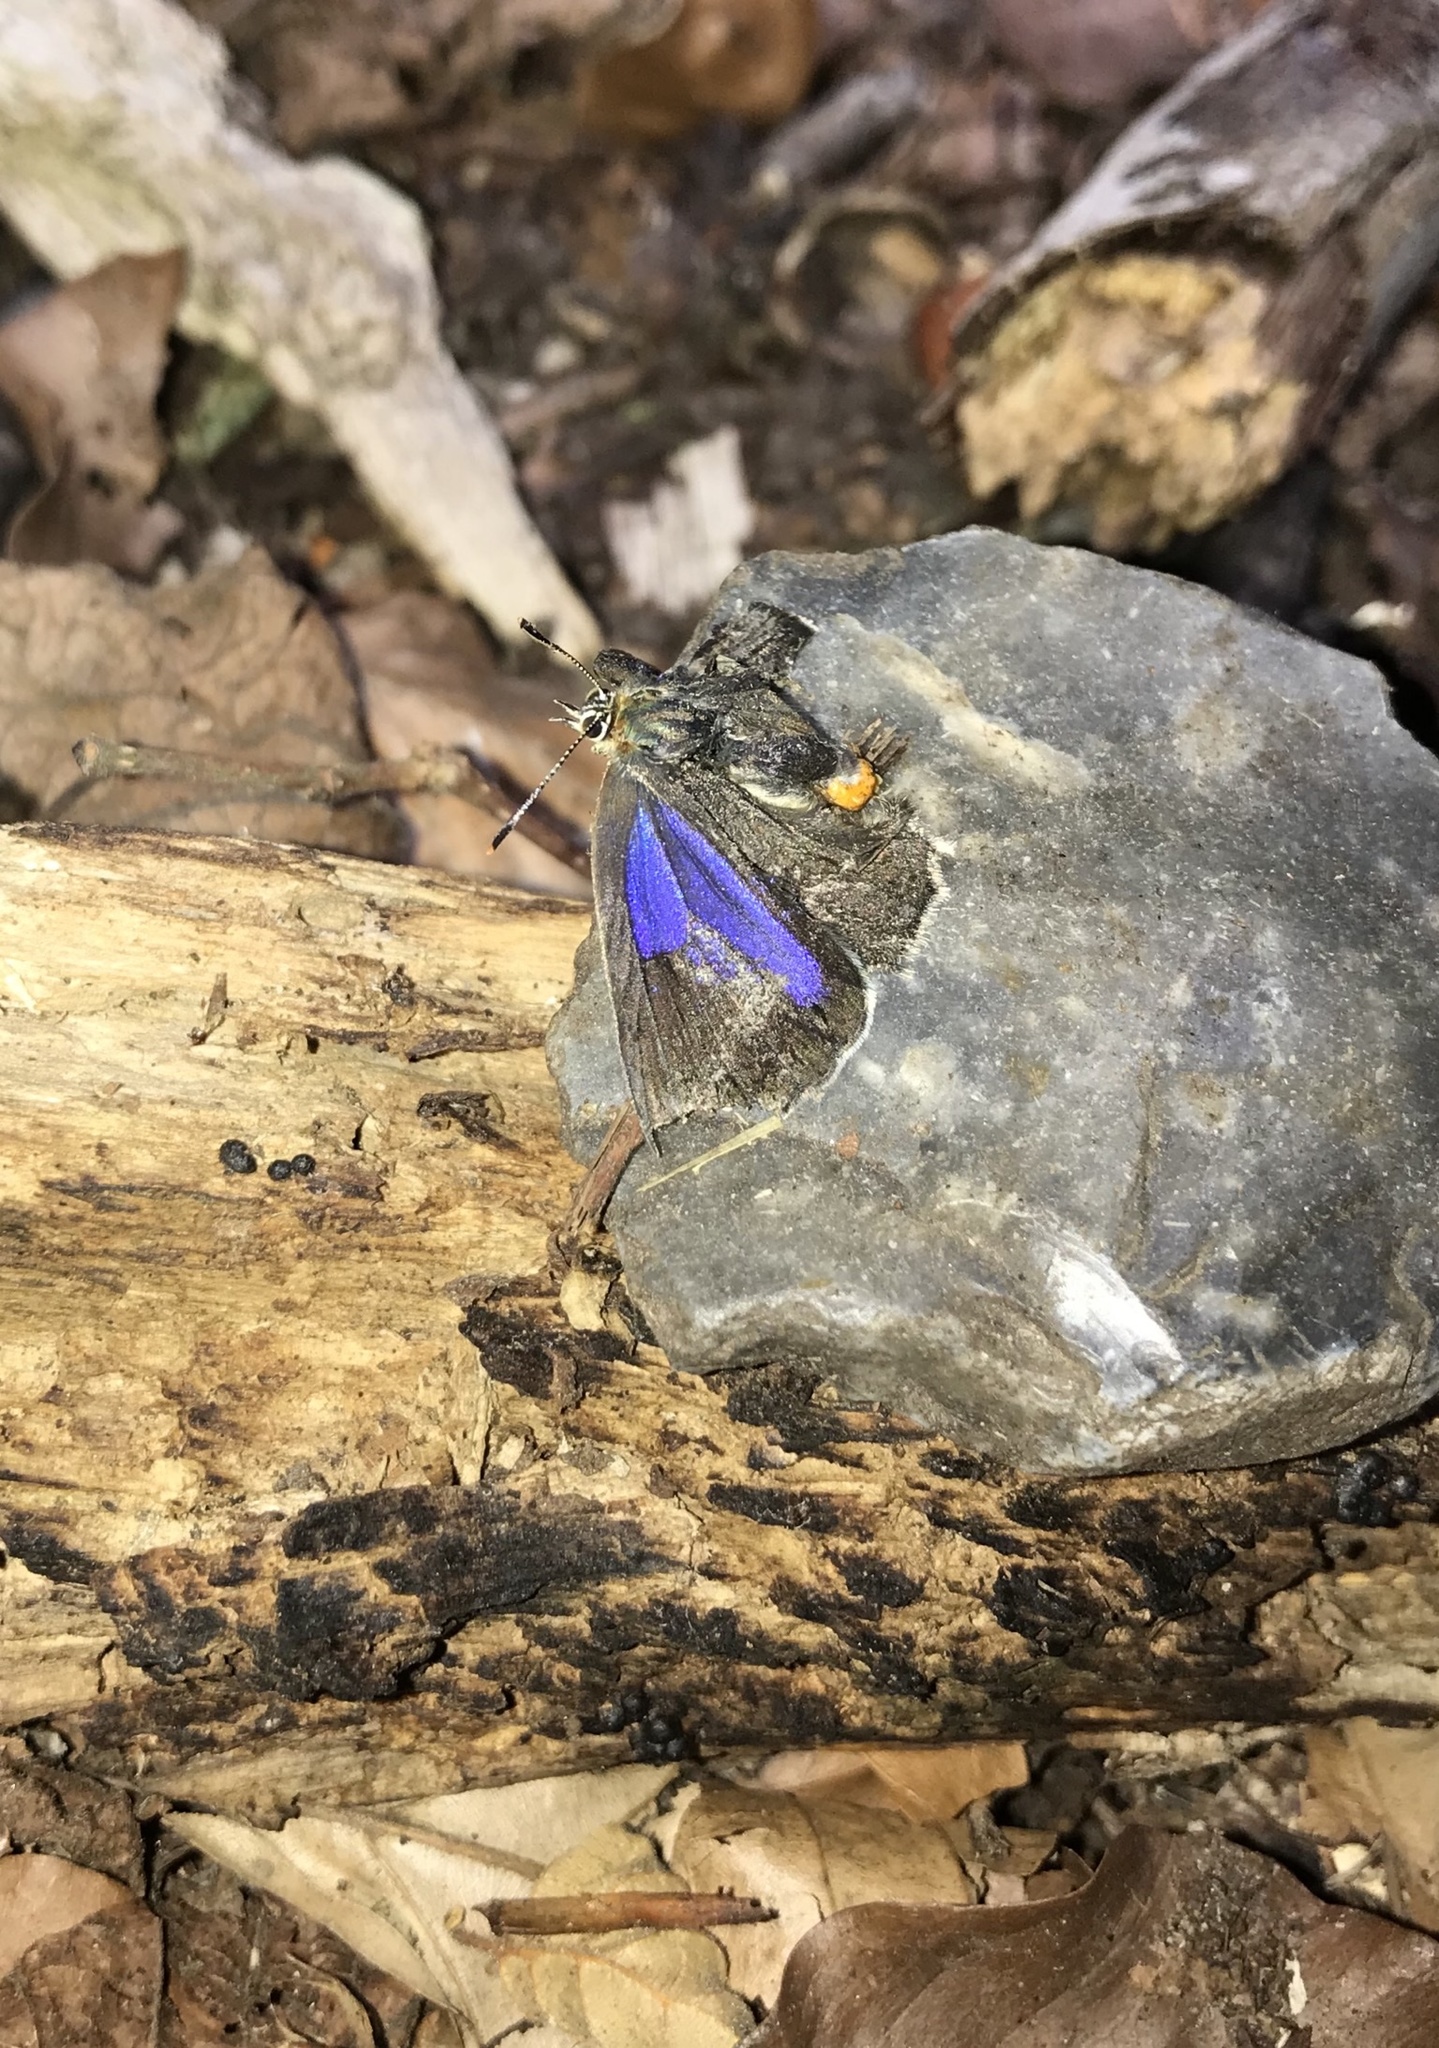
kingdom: Animalia
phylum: Arthropoda
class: Insecta
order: Lepidoptera
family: Lycaenidae
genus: Quercusia
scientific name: Quercusia quercus
